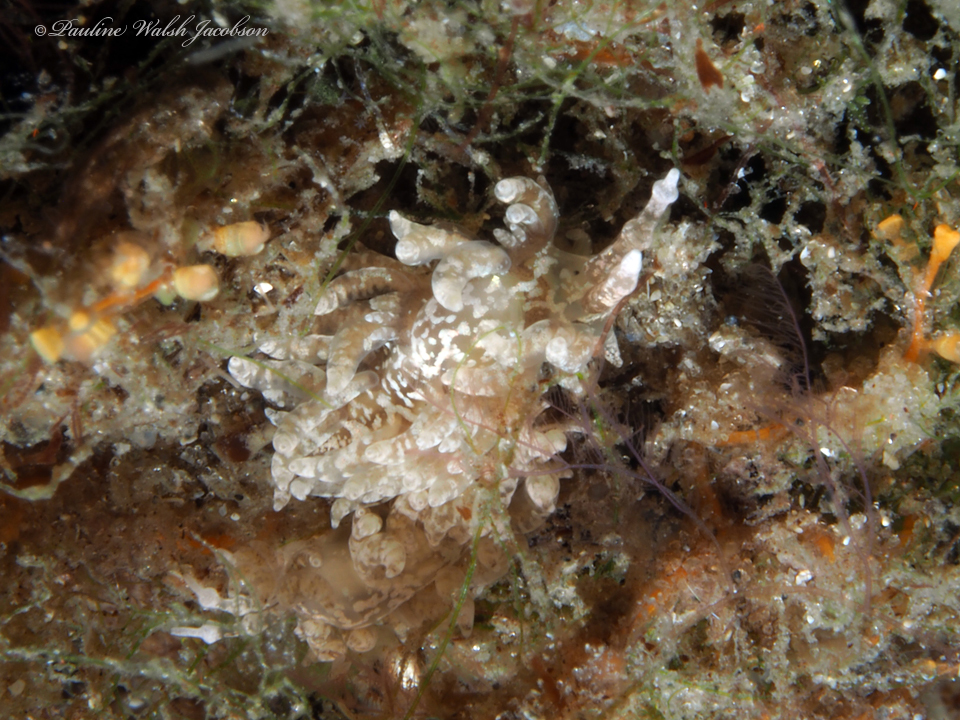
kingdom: Animalia
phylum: Mollusca
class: Gastropoda
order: Nudibranchia
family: Facelinidae
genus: Favorinus
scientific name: Favorinus auritulus
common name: Long-eared nudibranch
